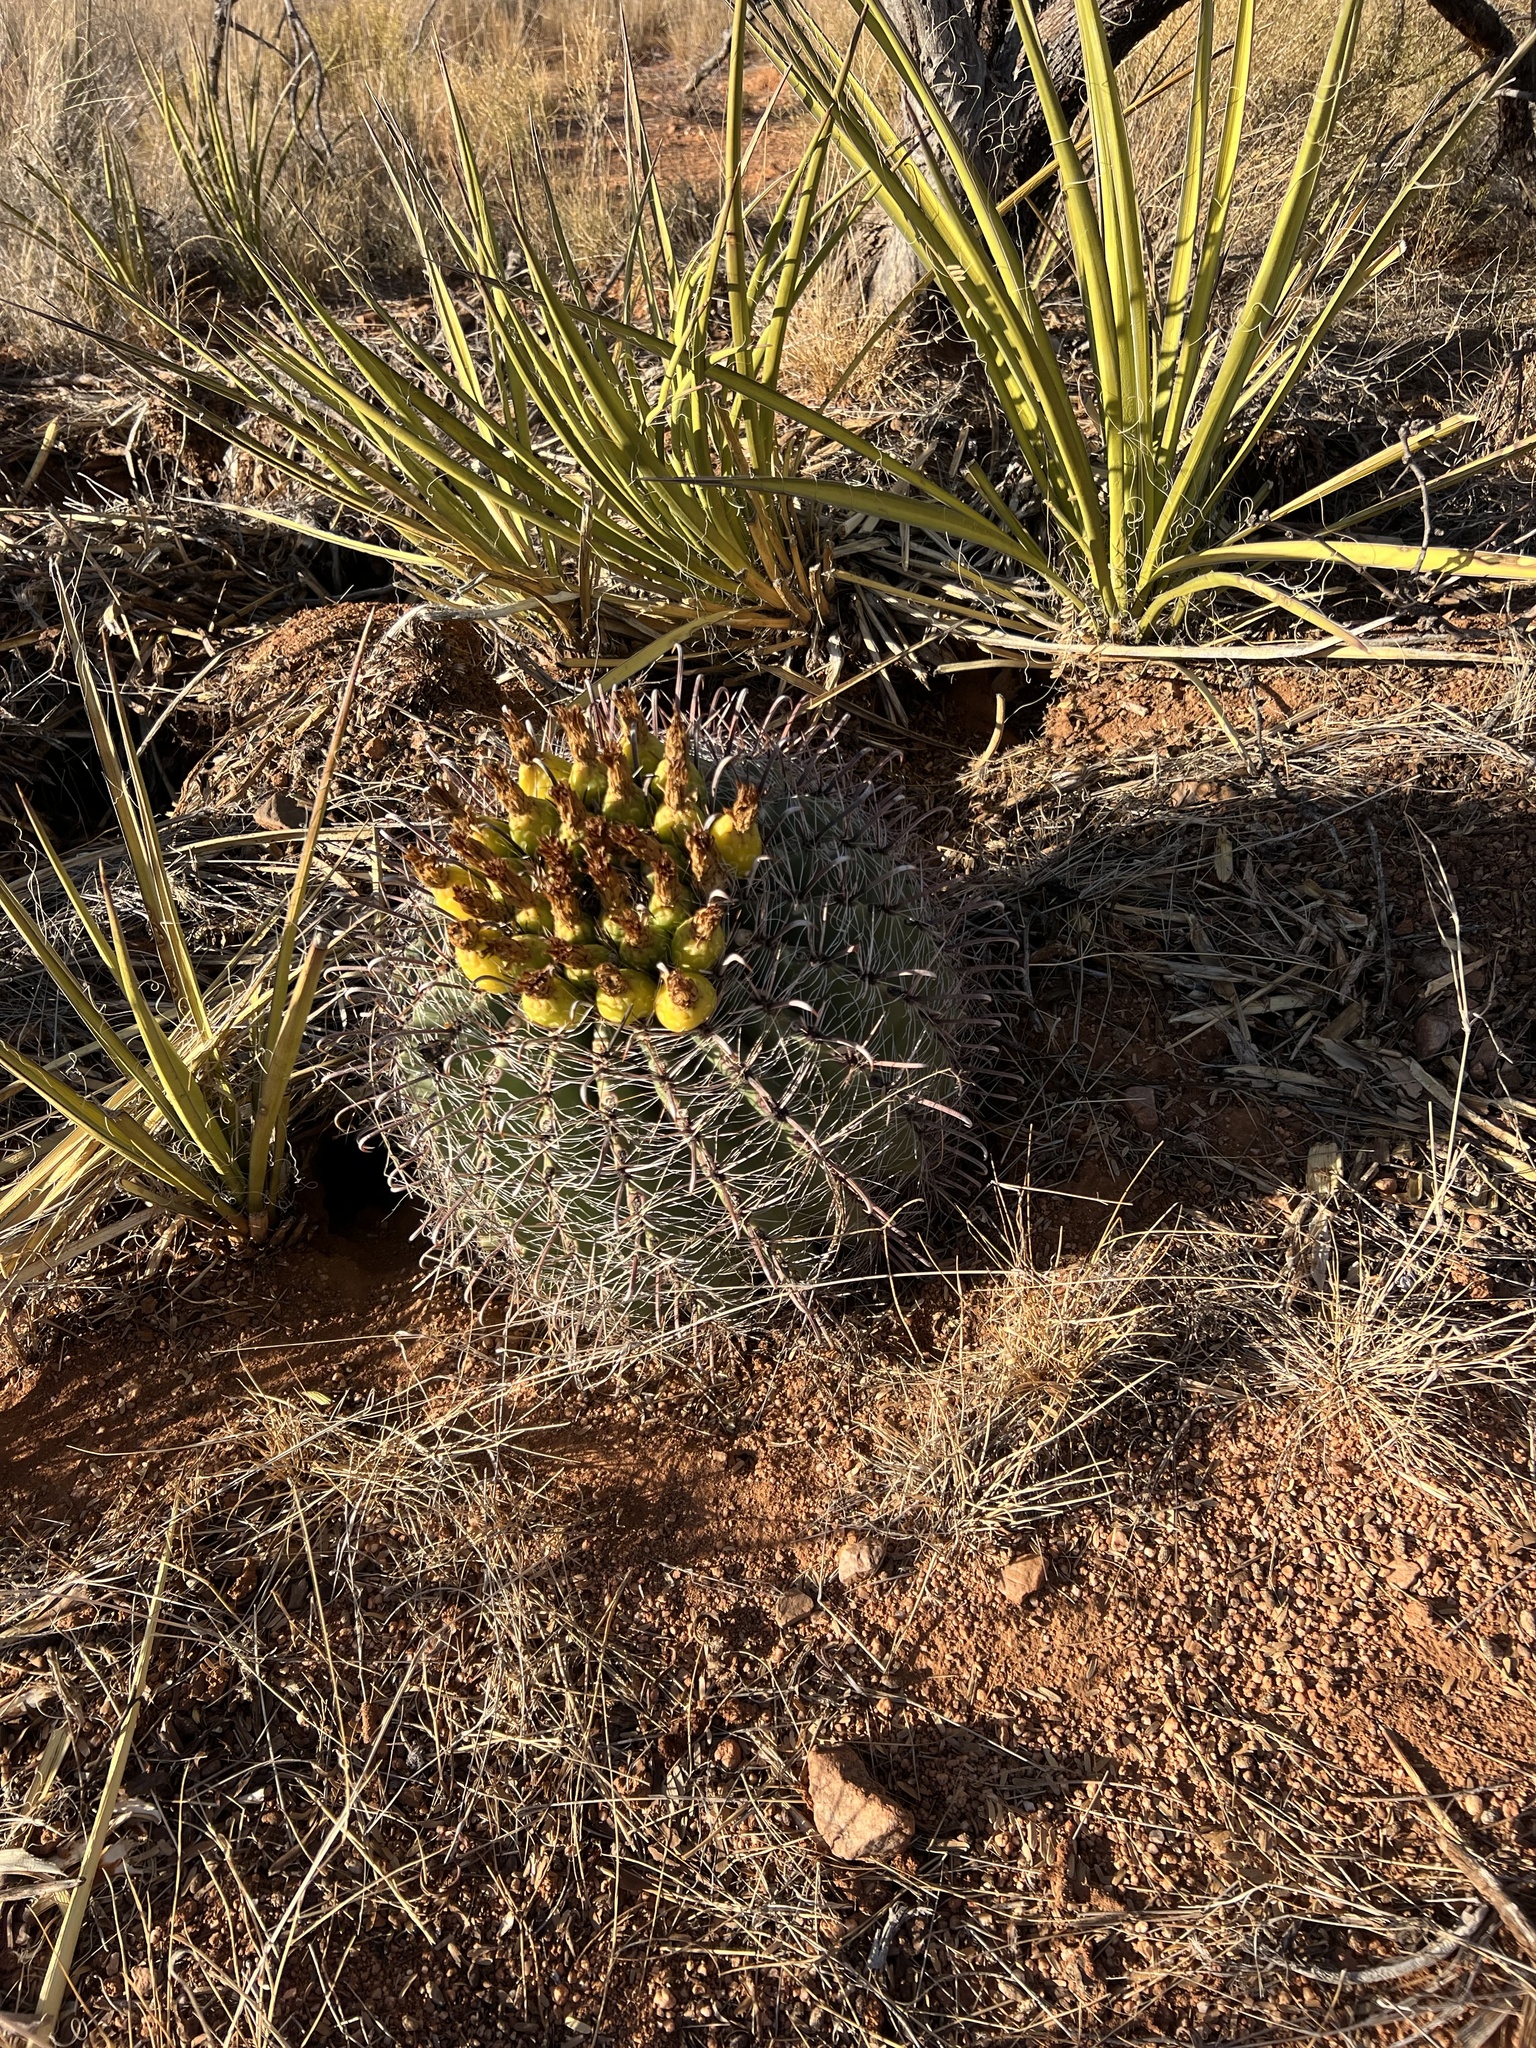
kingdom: Plantae
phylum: Tracheophyta
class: Magnoliopsida
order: Caryophyllales
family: Cactaceae
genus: Ferocactus
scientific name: Ferocactus wislizeni
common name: Candy barrel cactus
